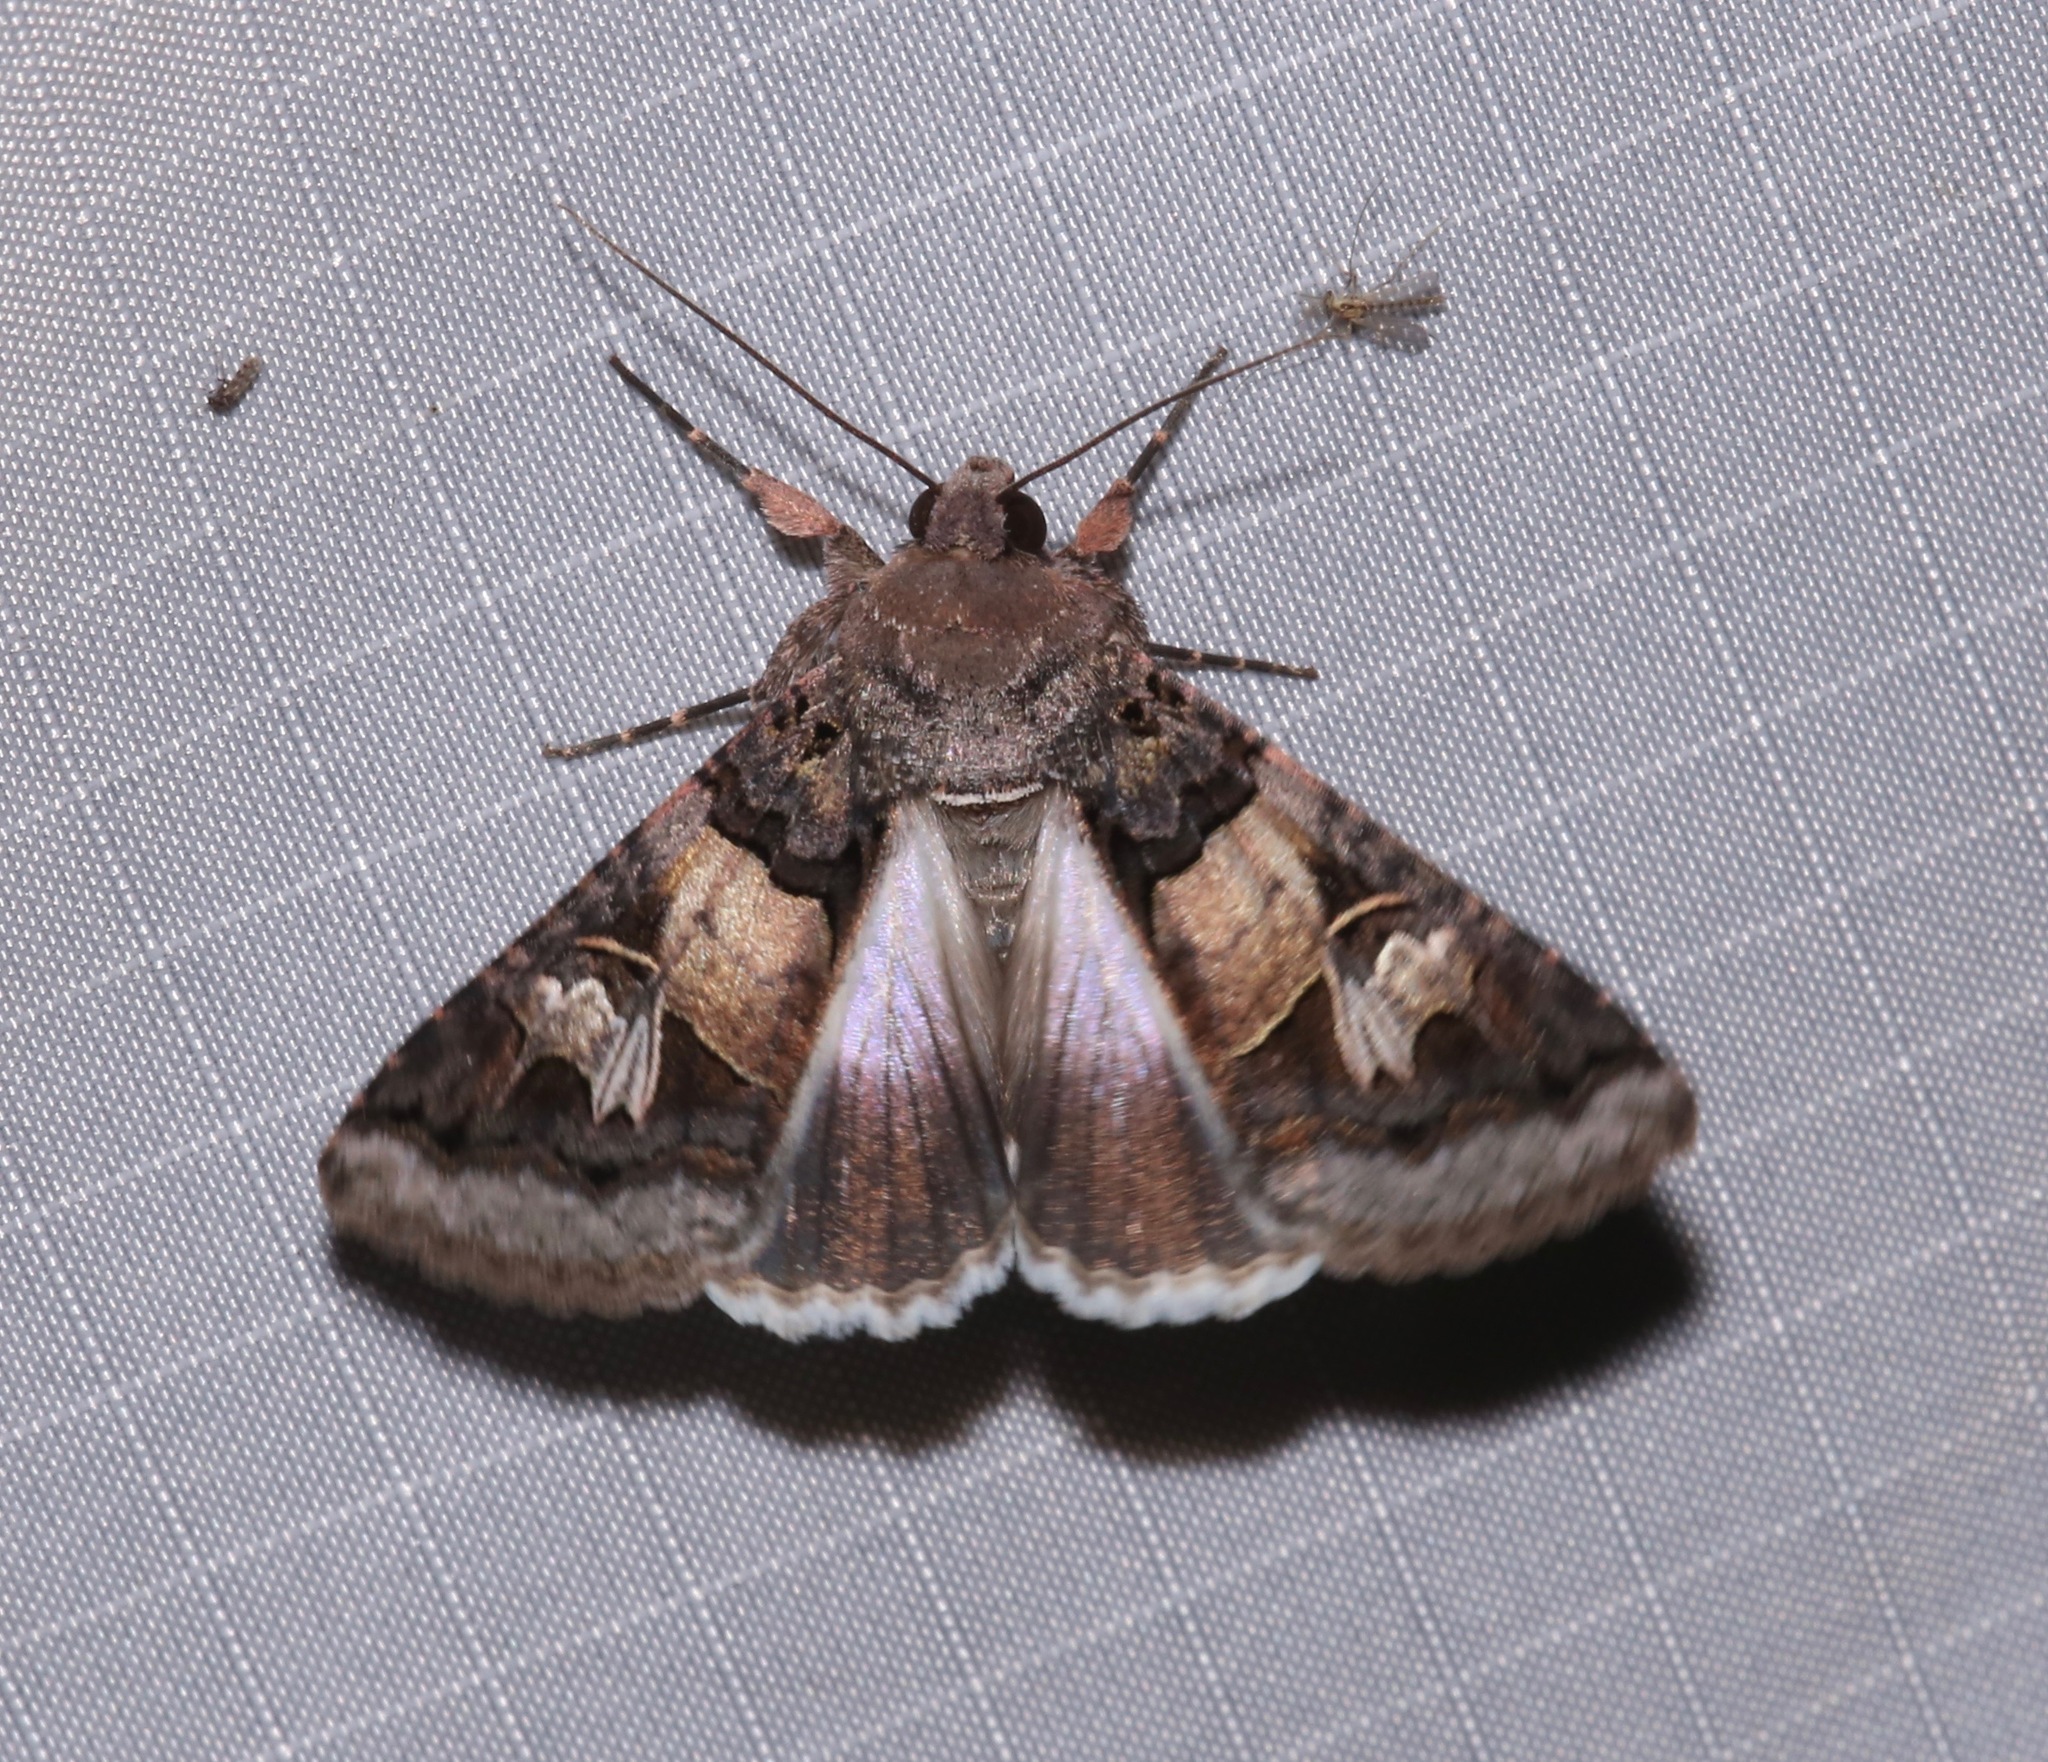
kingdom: Animalia
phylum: Arthropoda
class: Insecta
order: Lepidoptera
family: Erebidae
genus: Melipotis
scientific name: Melipotis novanda
